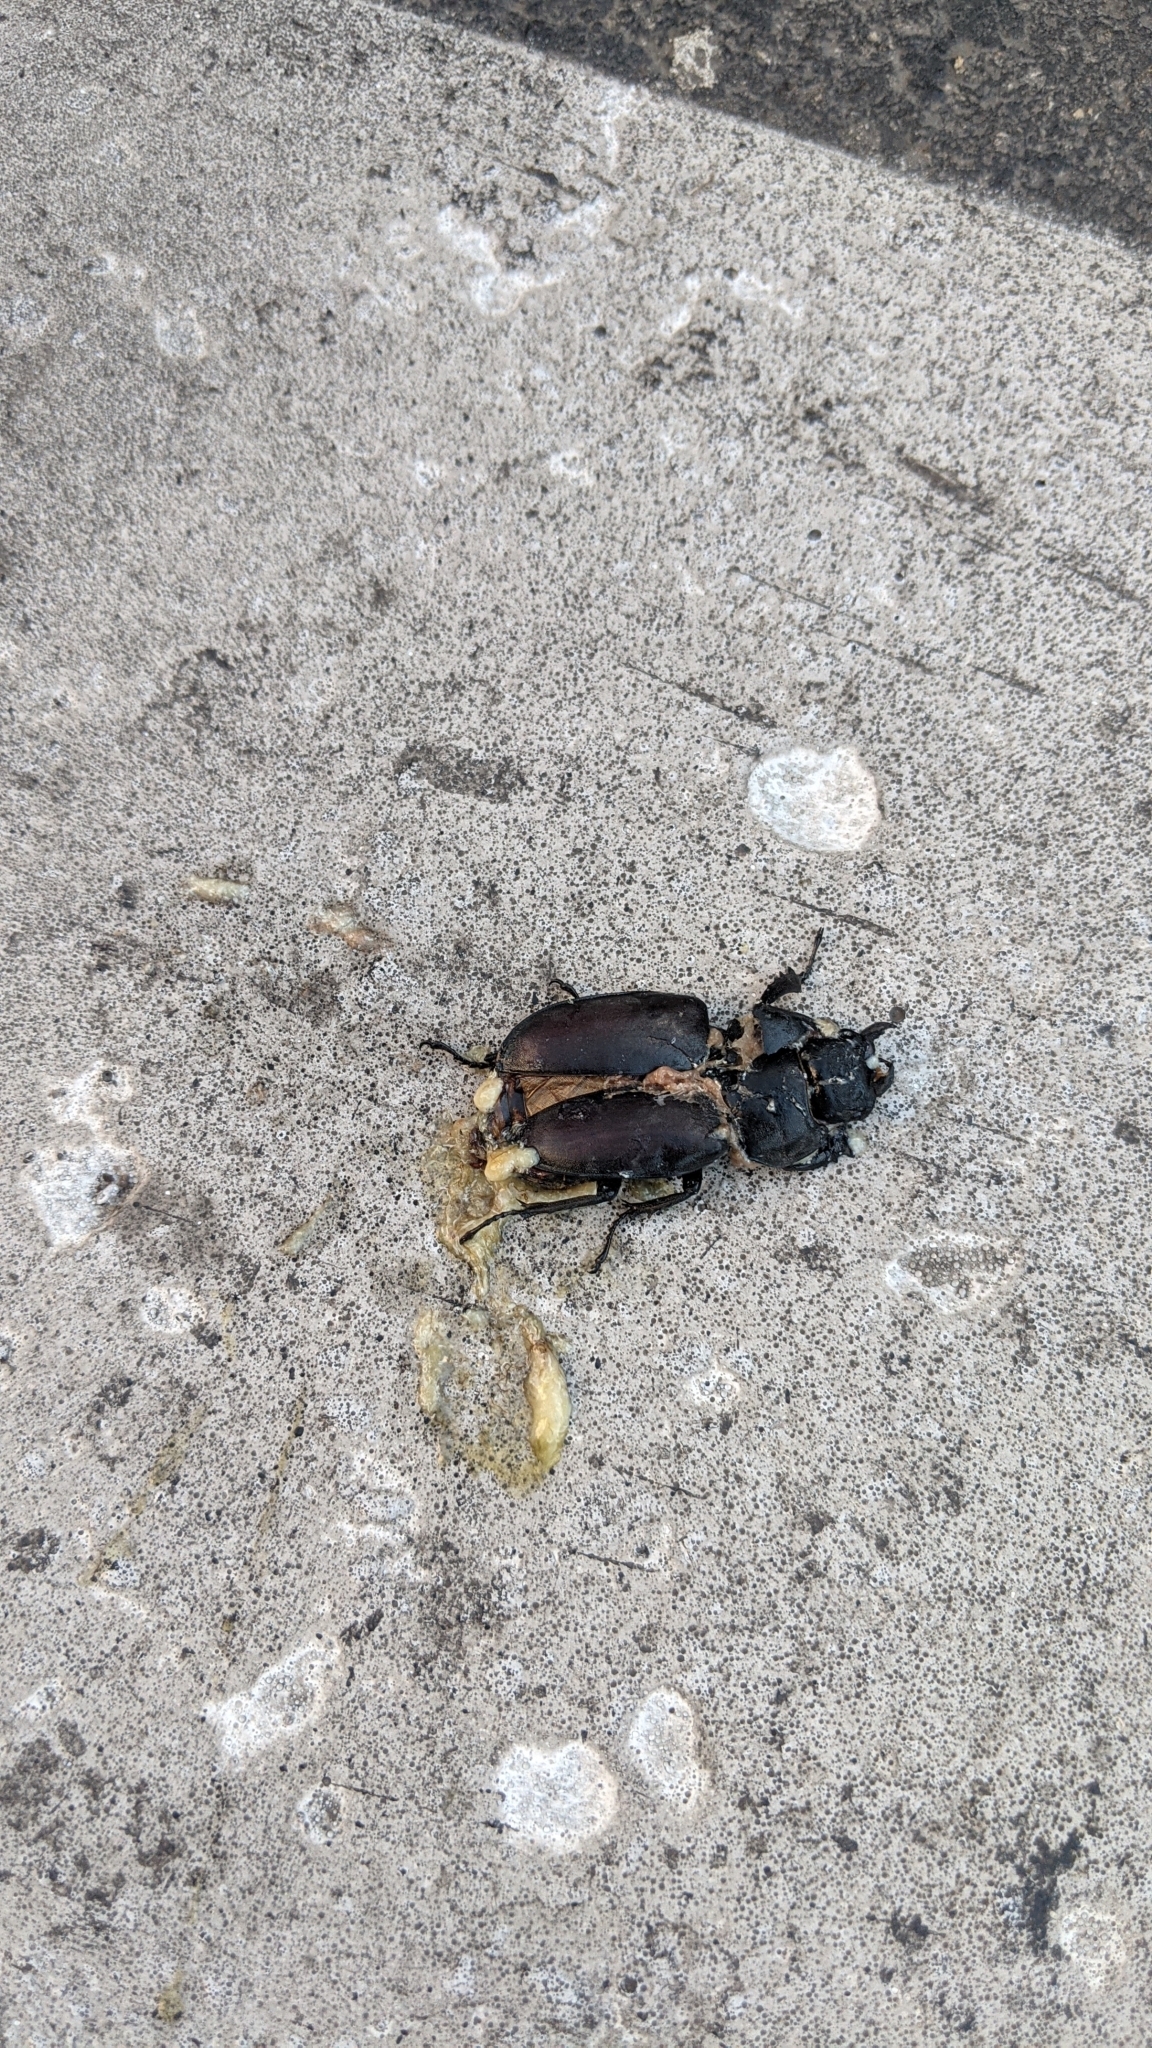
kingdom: Animalia
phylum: Arthropoda
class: Insecta
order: Coleoptera
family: Lucanidae
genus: Lucanus
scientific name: Lucanus cervus
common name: Stag beetle
